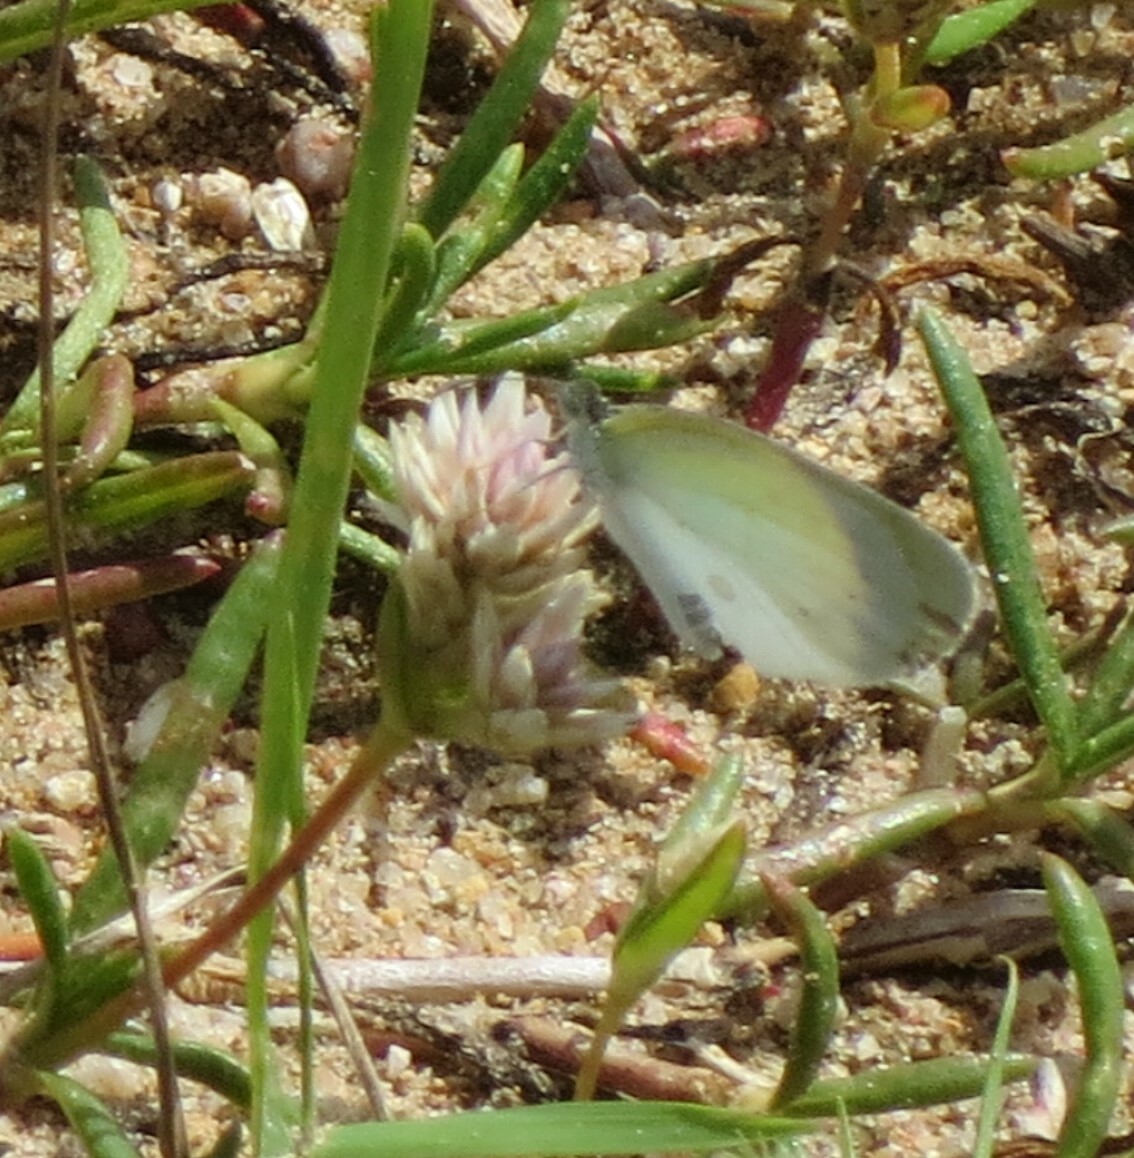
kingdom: Animalia
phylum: Arthropoda
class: Insecta
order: Lepidoptera
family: Pieridae
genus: Abaeis
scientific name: Abaeis albula
